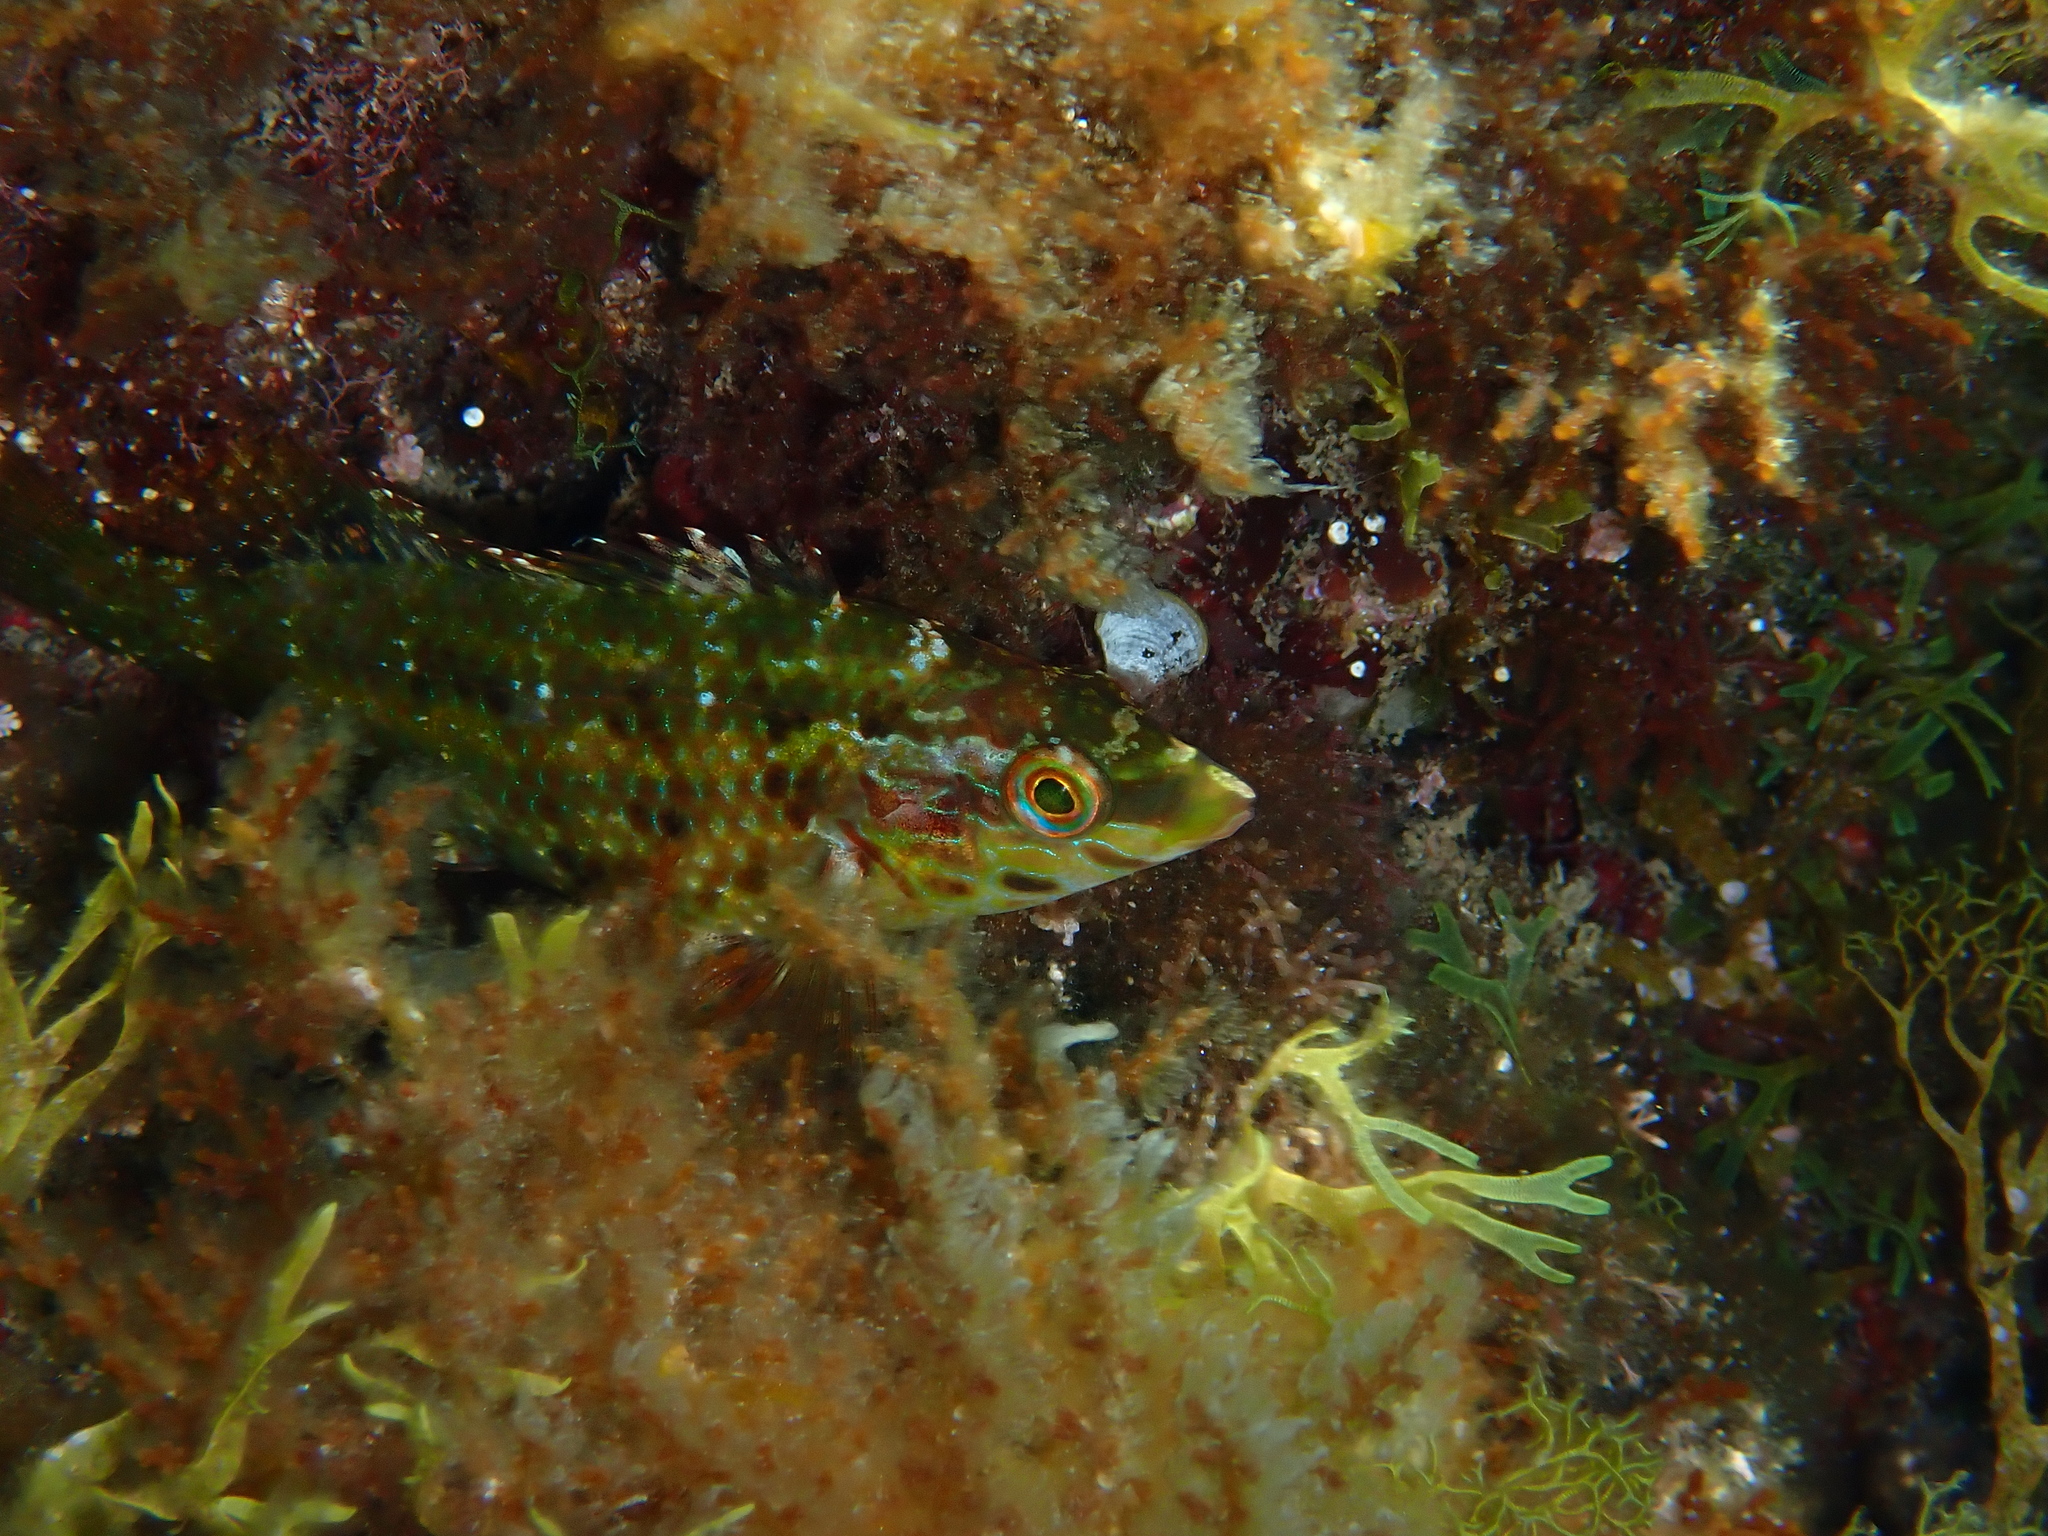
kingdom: Animalia
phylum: Chordata
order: Perciformes
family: Labridae
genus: Symphodus
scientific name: Symphodus roissali
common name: Five-spotted wrasse
